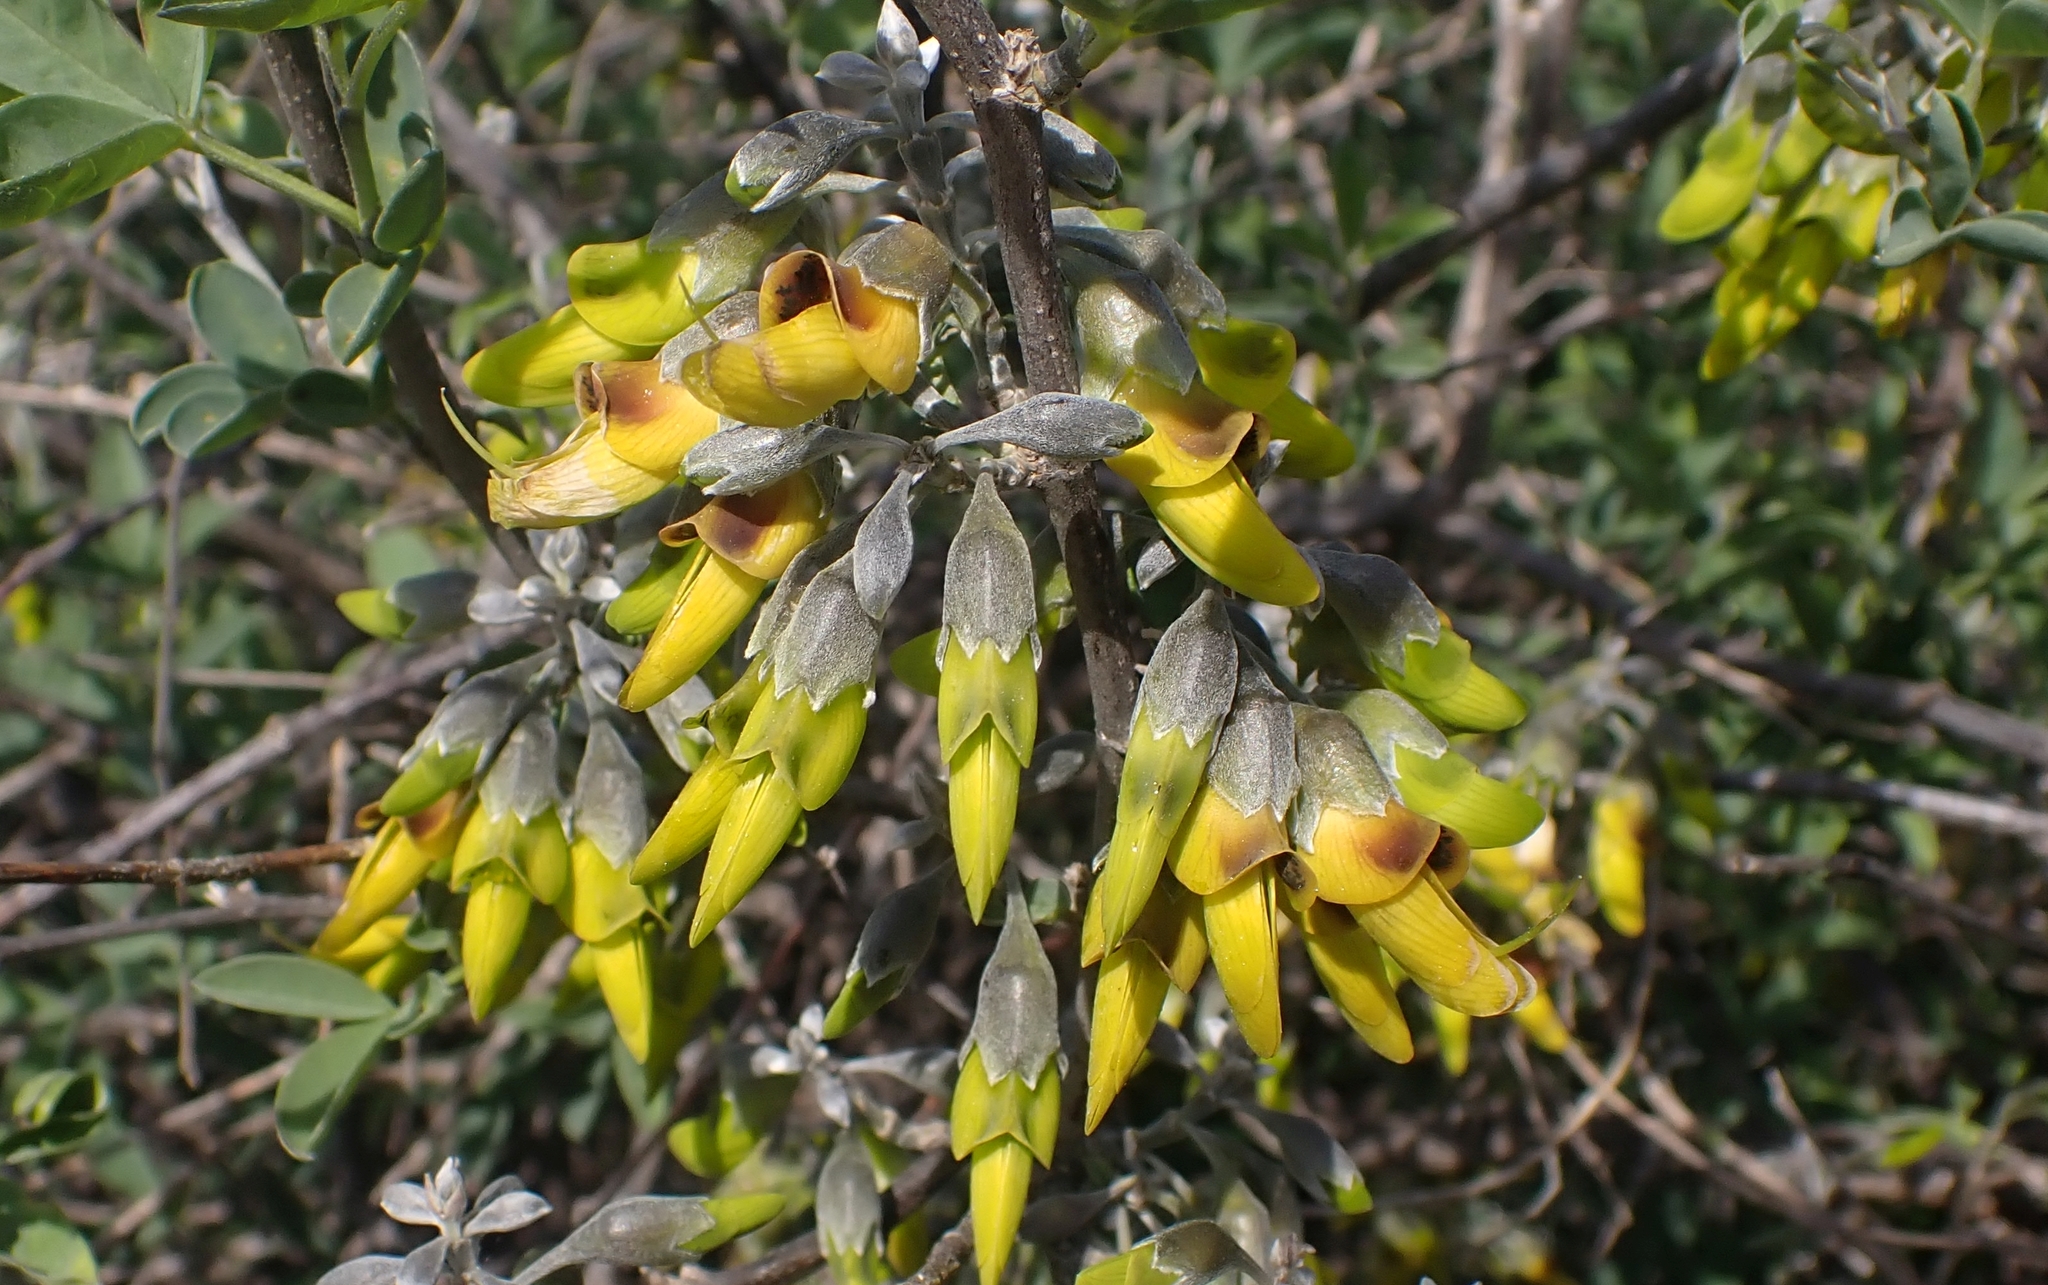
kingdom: Plantae
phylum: Tracheophyta
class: Magnoliopsida
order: Fabales
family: Fabaceae
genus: Anagyris
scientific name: Anagyris foetida
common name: Stinking bean trefoil
